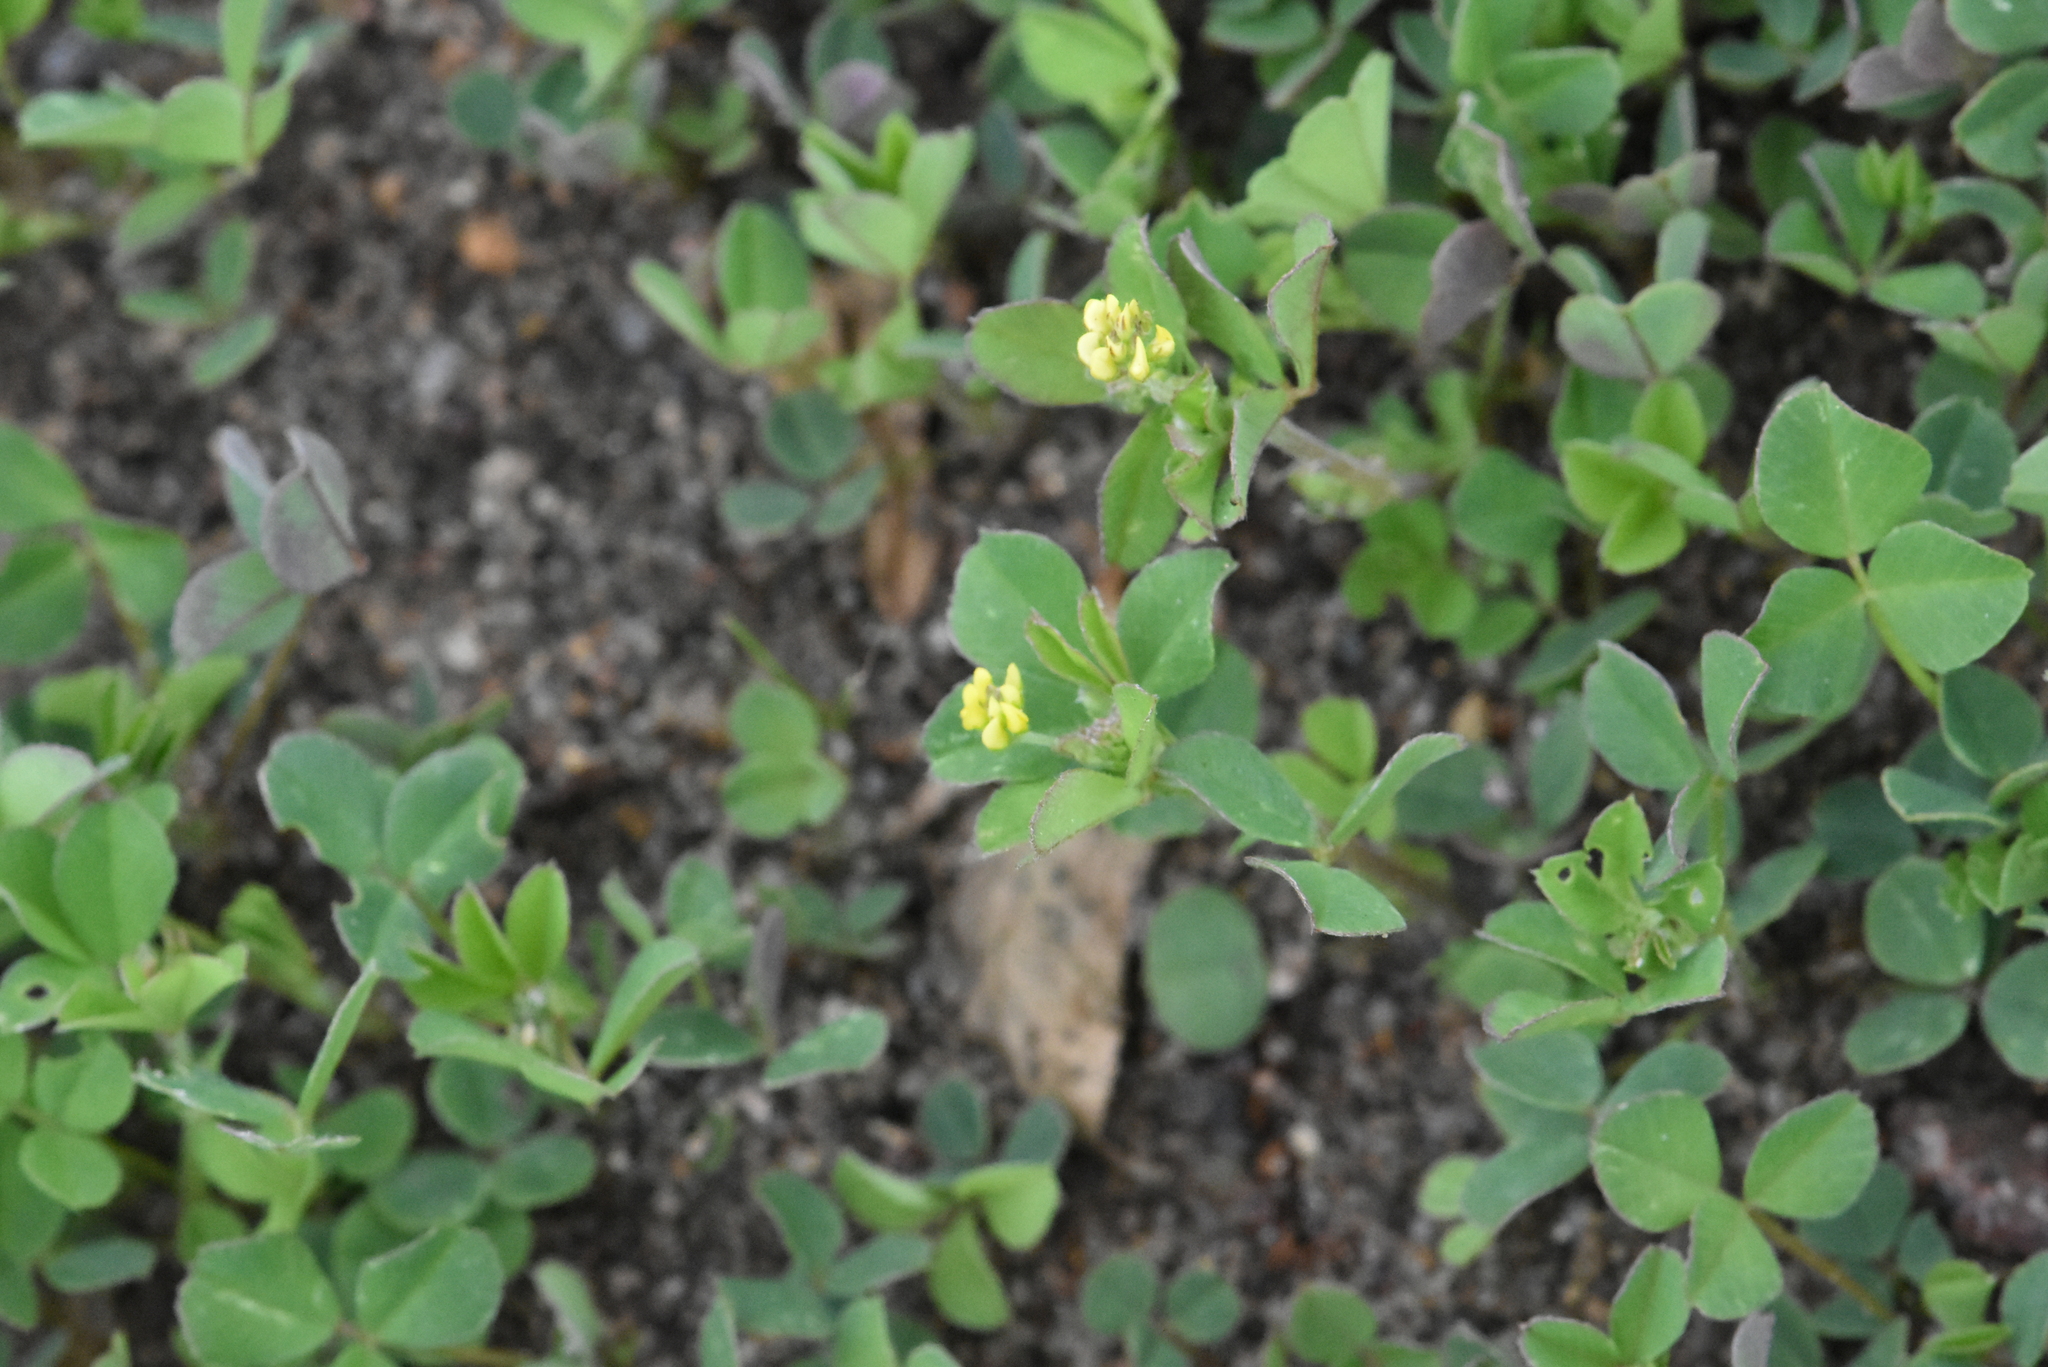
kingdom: Plantae
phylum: Tracheophyta
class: Magnoliopsida
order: Fabales
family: Fabaceae
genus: Medicago
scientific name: Medicago lupulina
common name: Black medick
